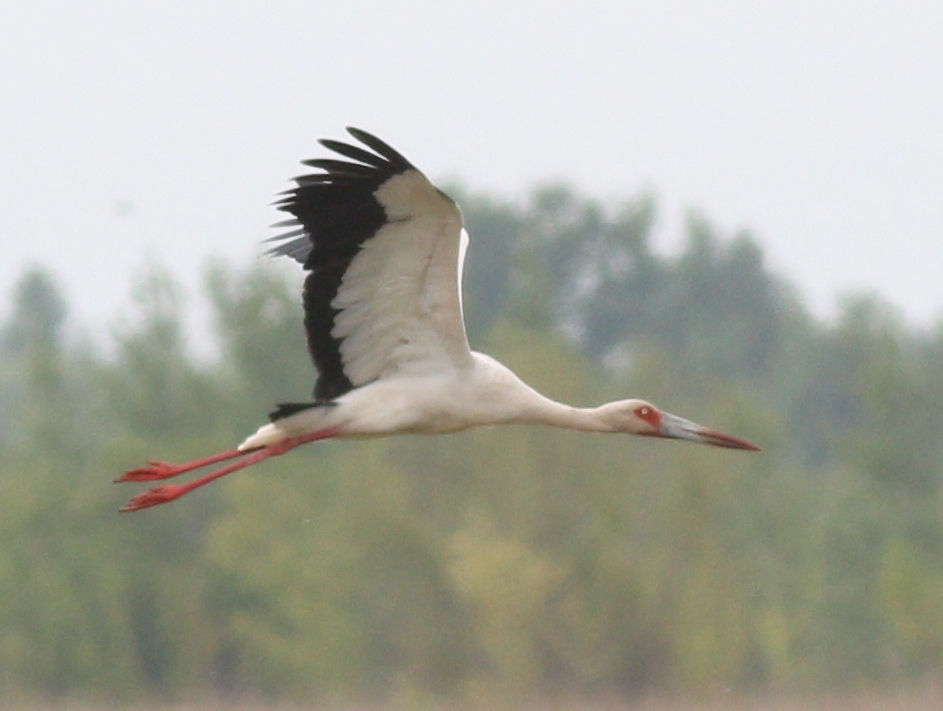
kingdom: Animalia
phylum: Chordata
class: Aves
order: Ciconiiformes
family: Ciconiidae
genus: Ciconia
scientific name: Ciconia maguari
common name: Maguari stork
